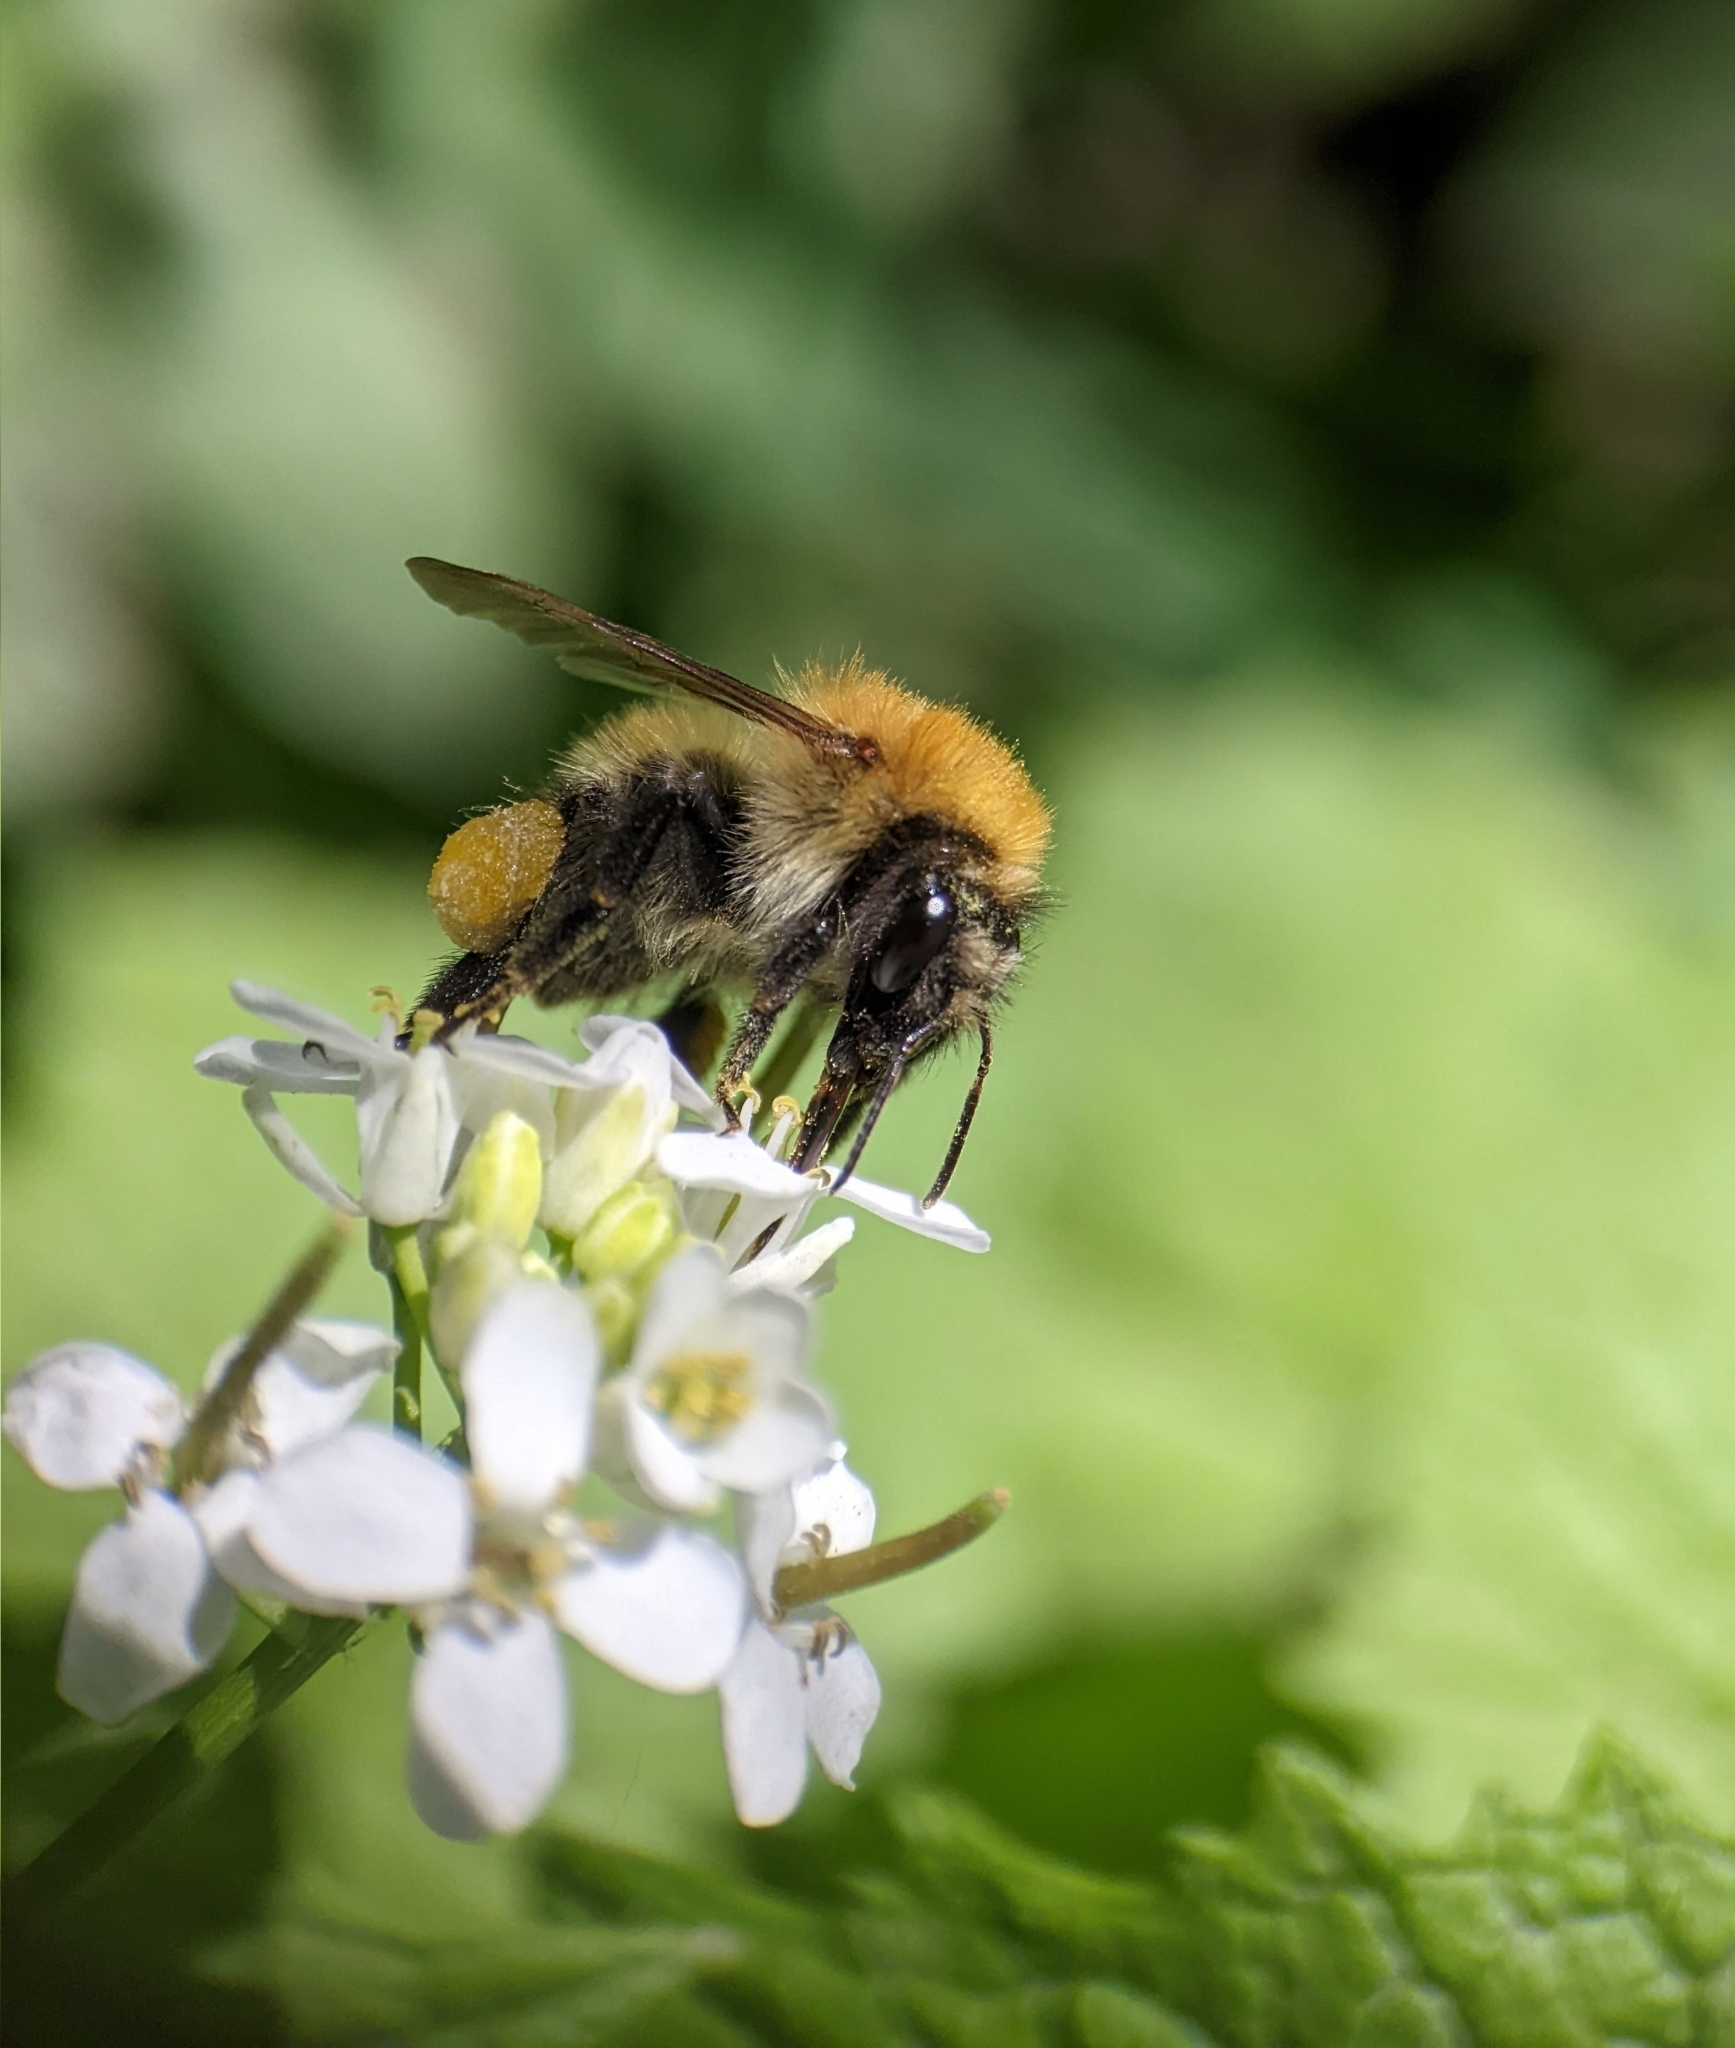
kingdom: Animalia
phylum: Arthropoda
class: Insecta
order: Hymenoptera
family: Apidae
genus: Bombus
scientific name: Bombus pascuorum
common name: Common carder bee
